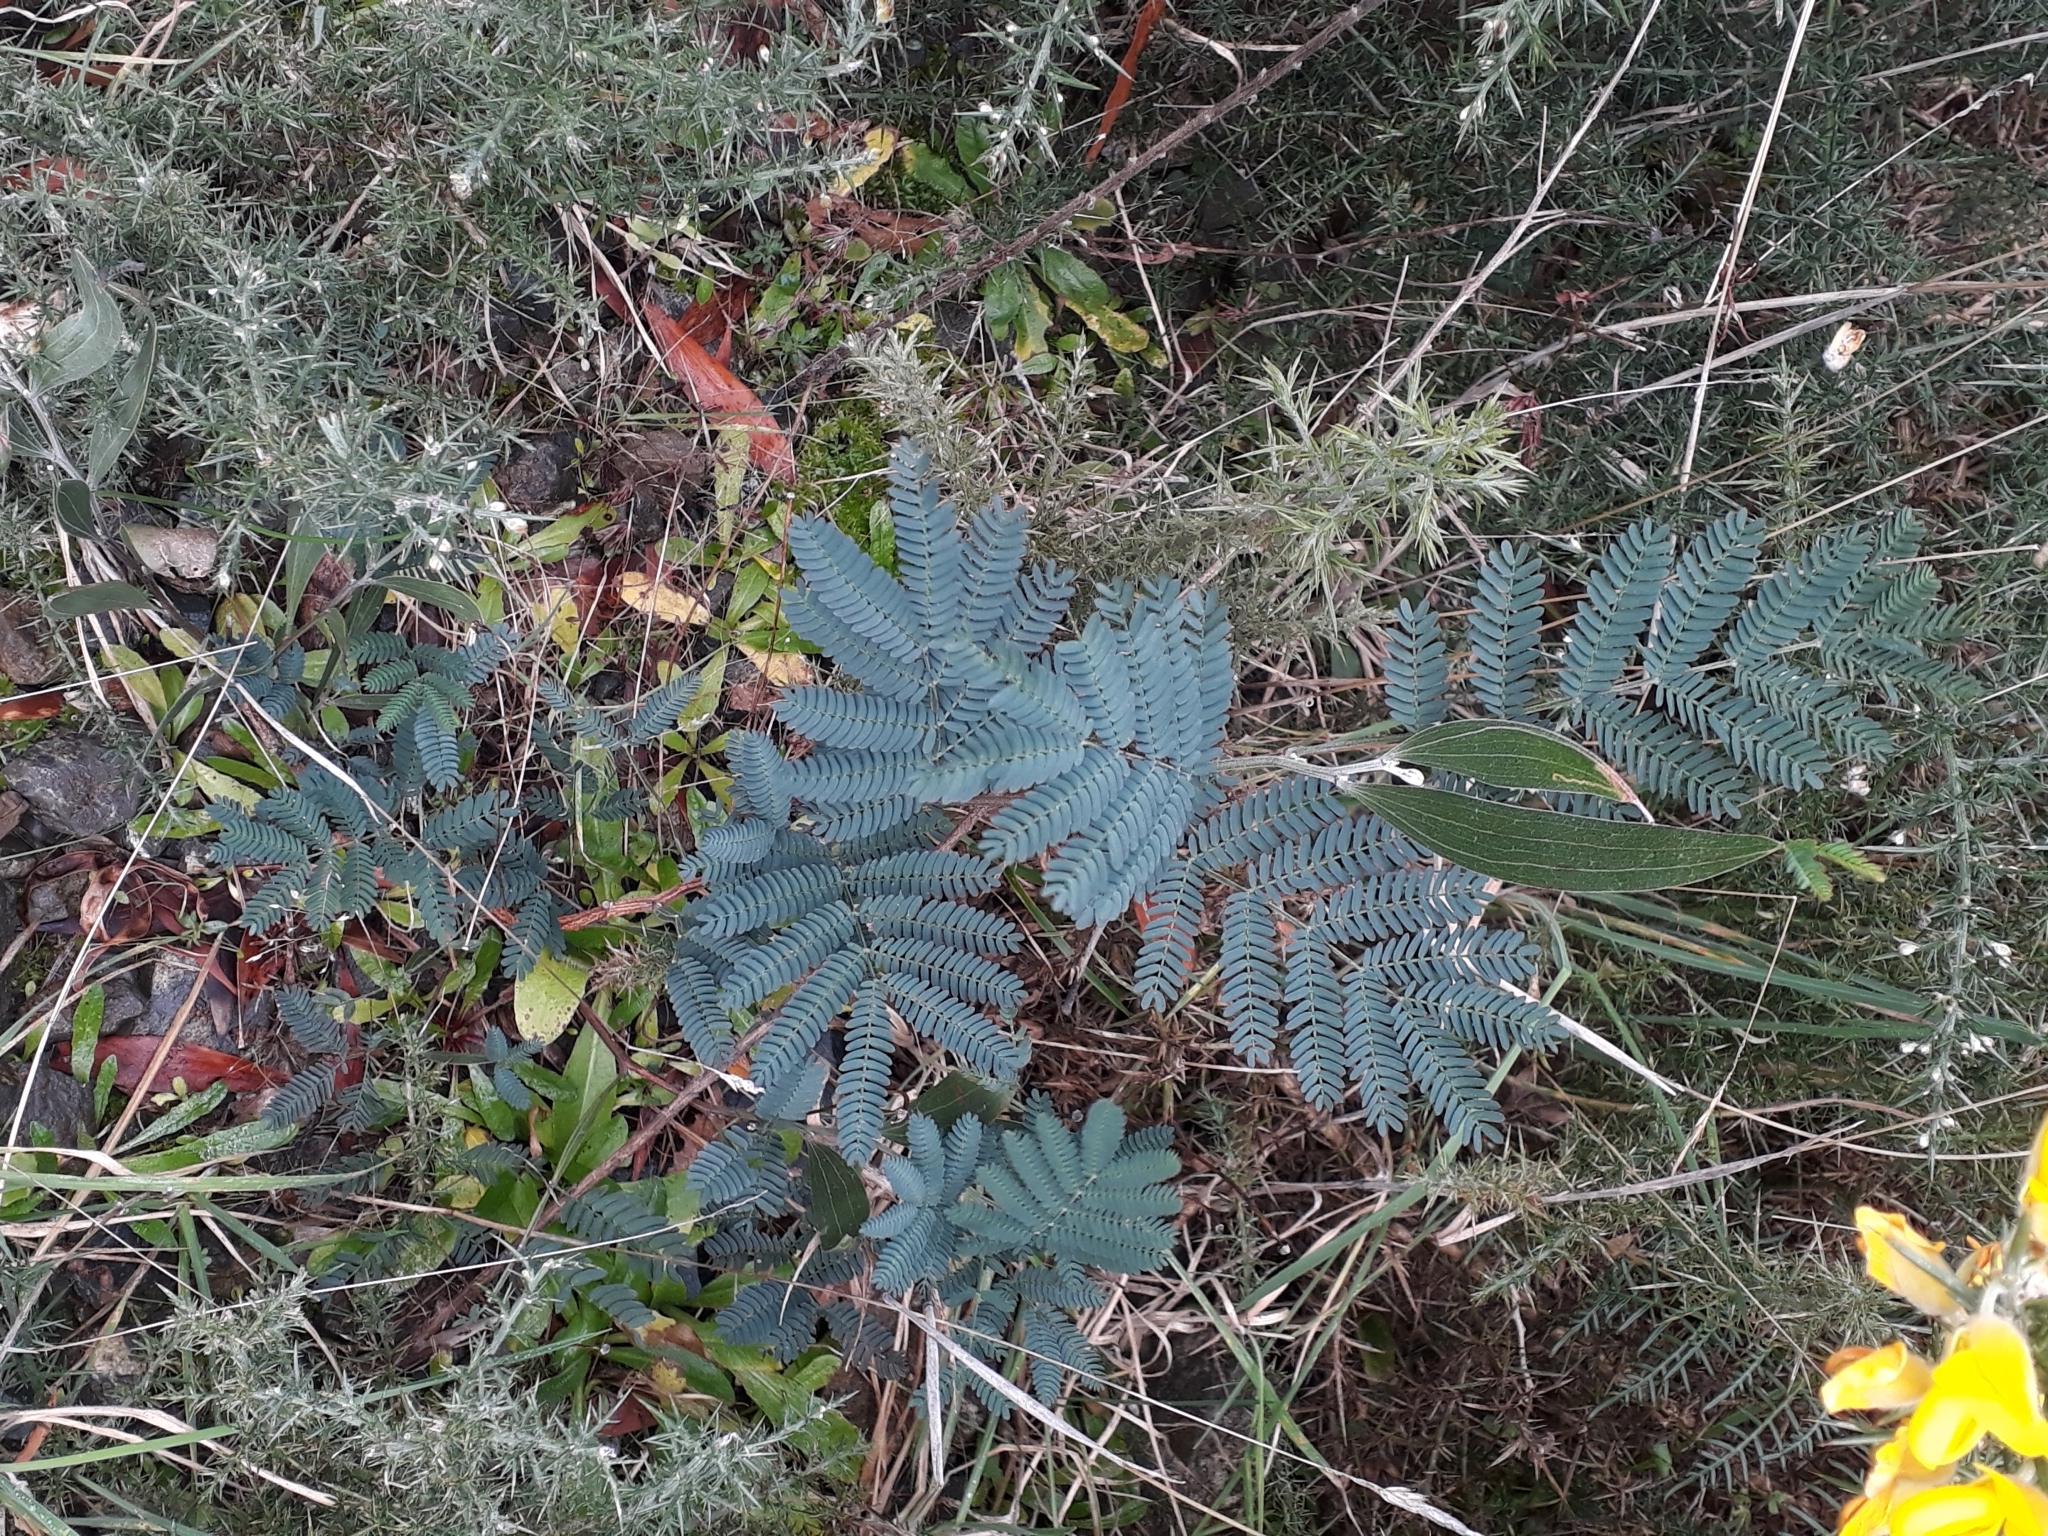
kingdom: Plantae
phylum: Tracheophyta
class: Magnoliopsida
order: Fabales
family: Fabaceae
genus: Acacia
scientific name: Acacia melanoxylon
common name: Blackwood
